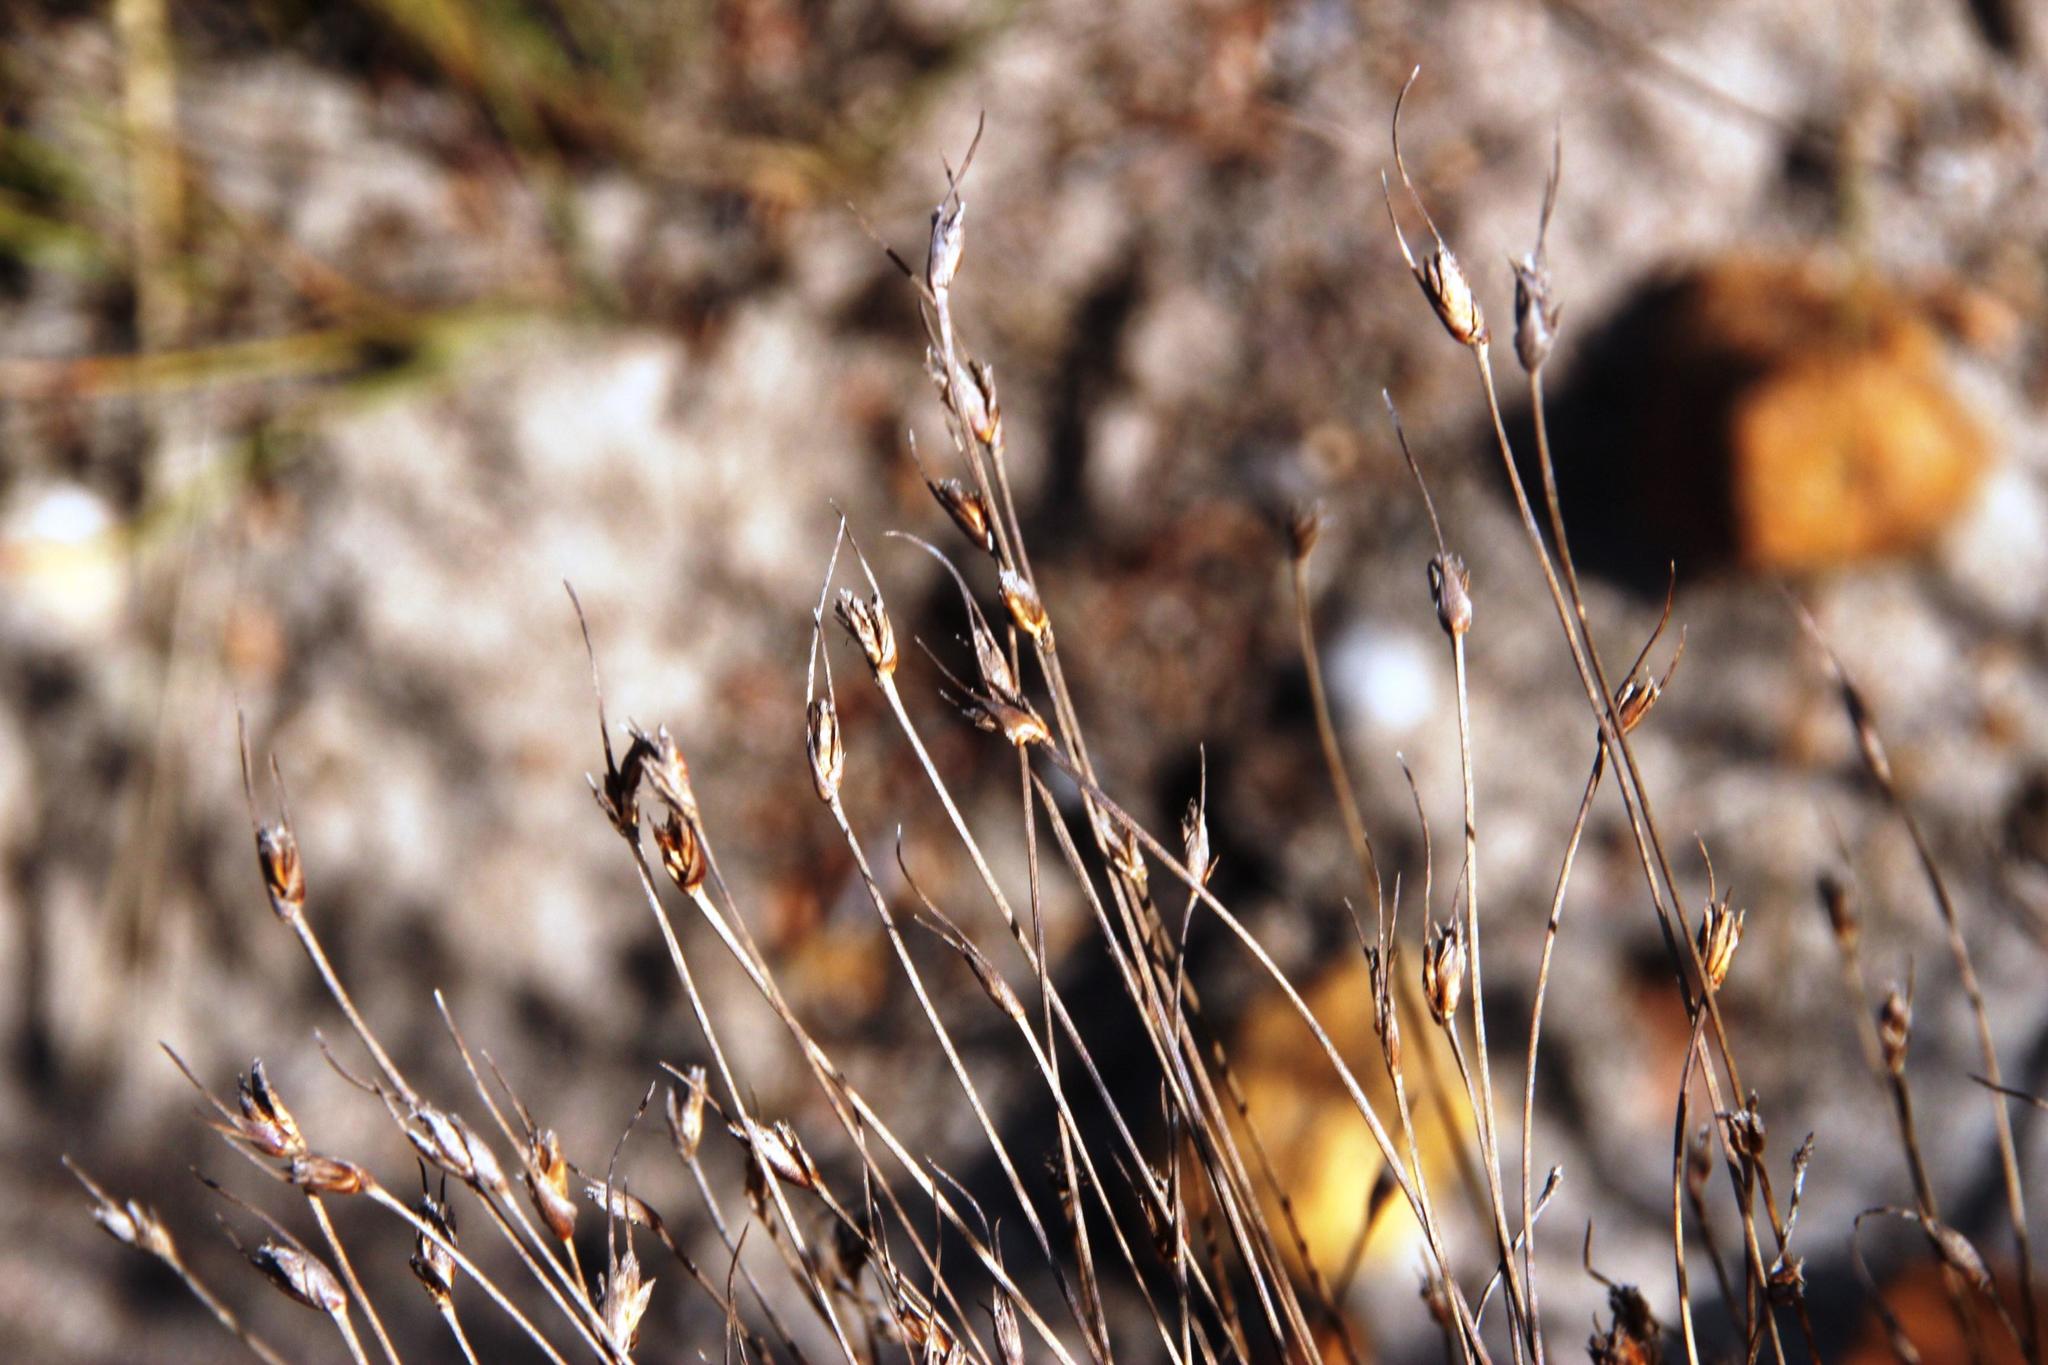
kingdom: Plantae
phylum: Tracheophyta
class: Liliopsida
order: Poales
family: Cyperaceae
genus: Ficinia
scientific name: Ficinia zeyheri
